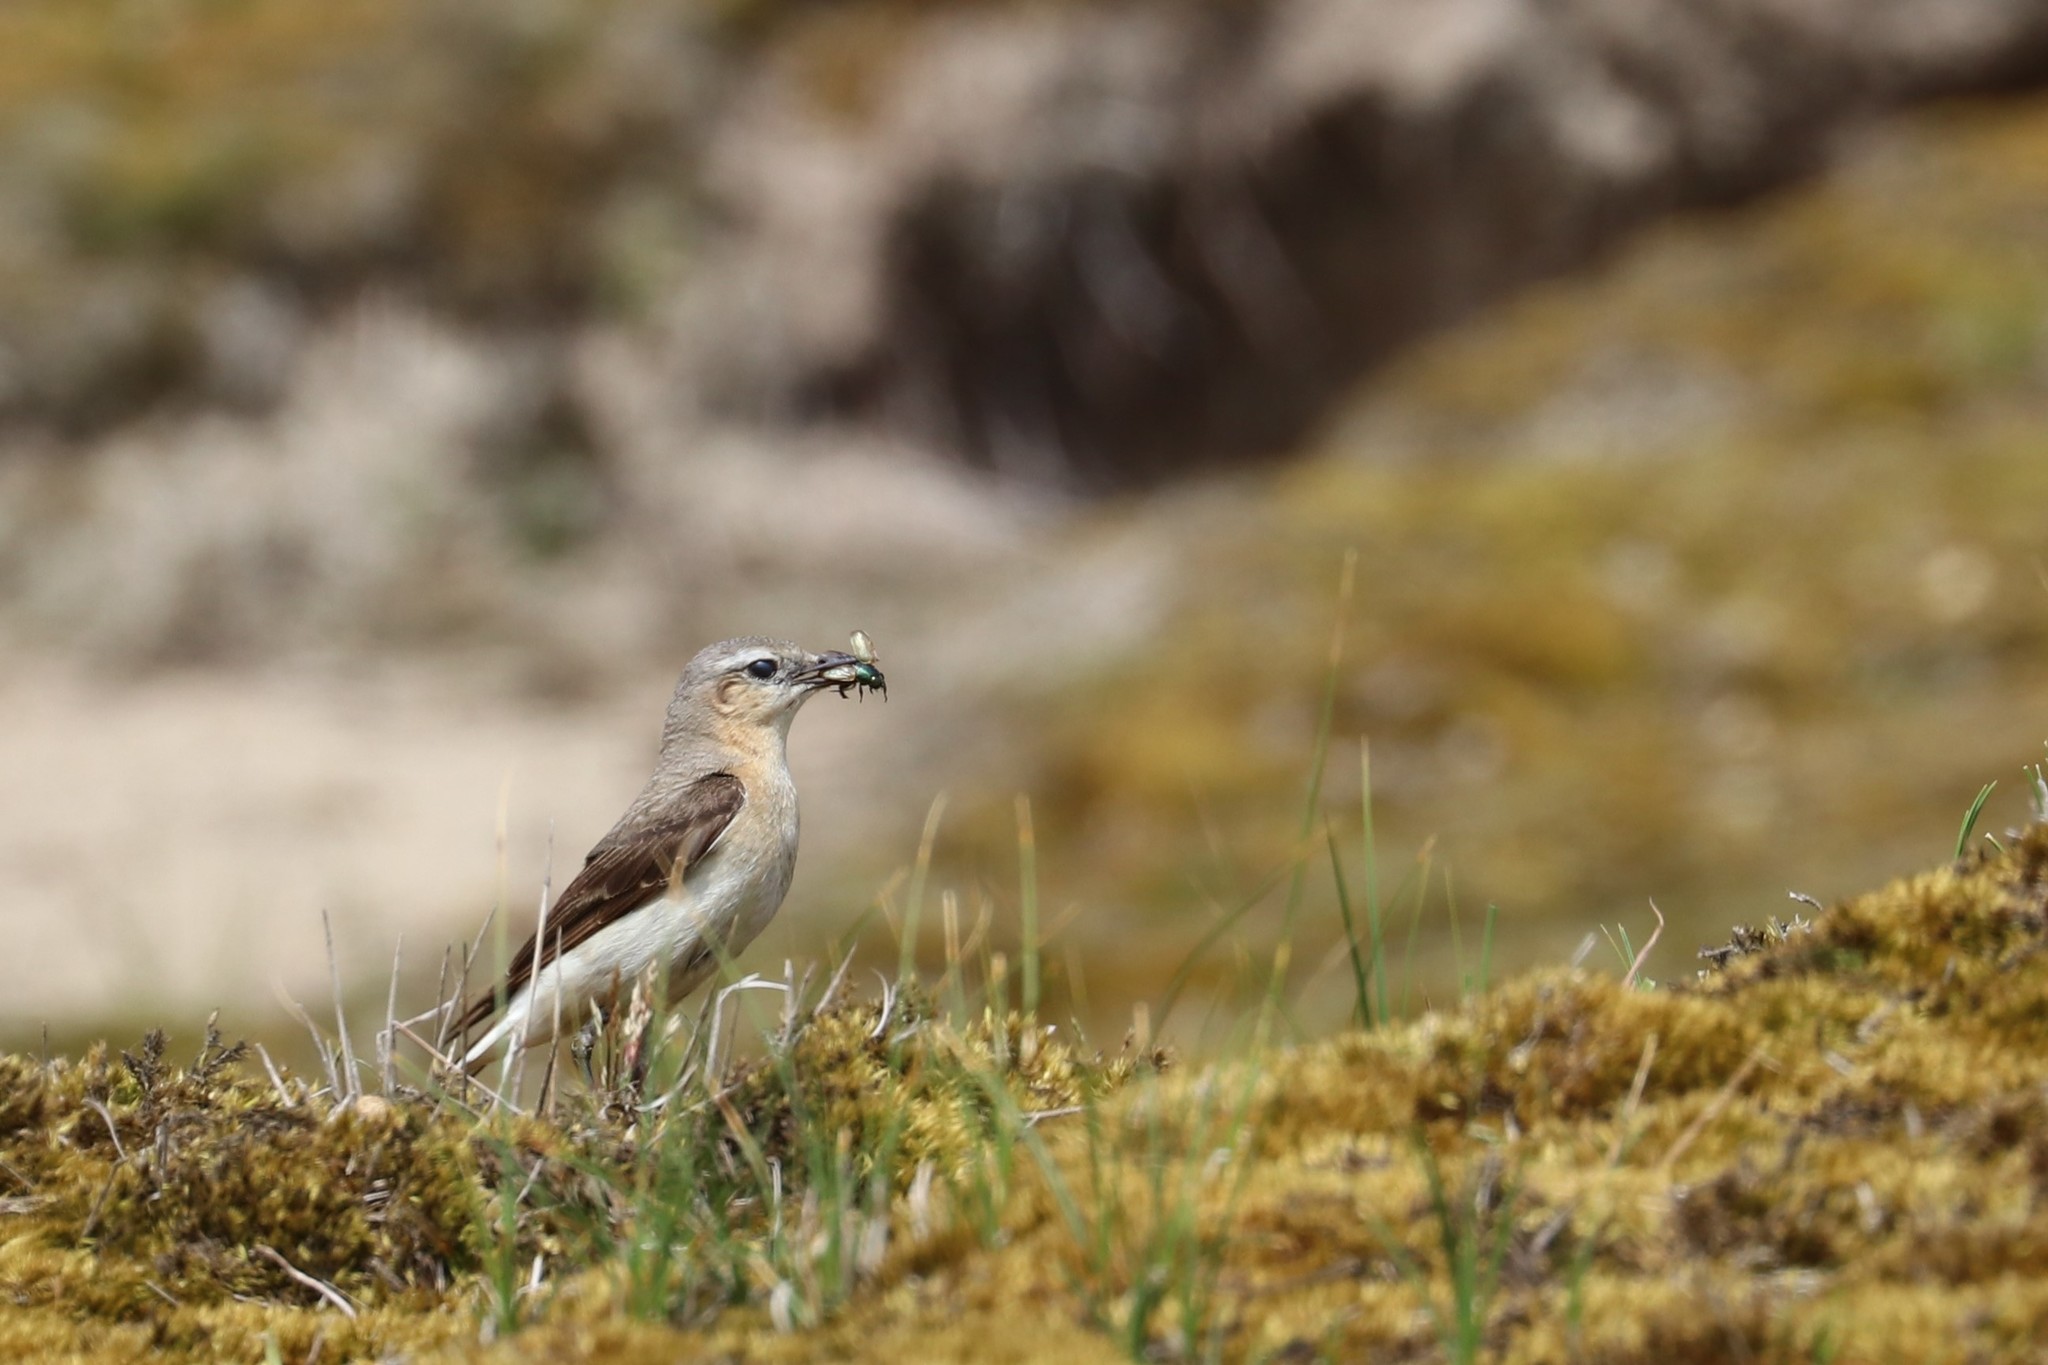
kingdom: Animalia
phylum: Chordata
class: Aves
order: Passeriformes
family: Muscicapidae
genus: Oenanthe
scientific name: Oenanthe oenanthe
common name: Northern wheatear
